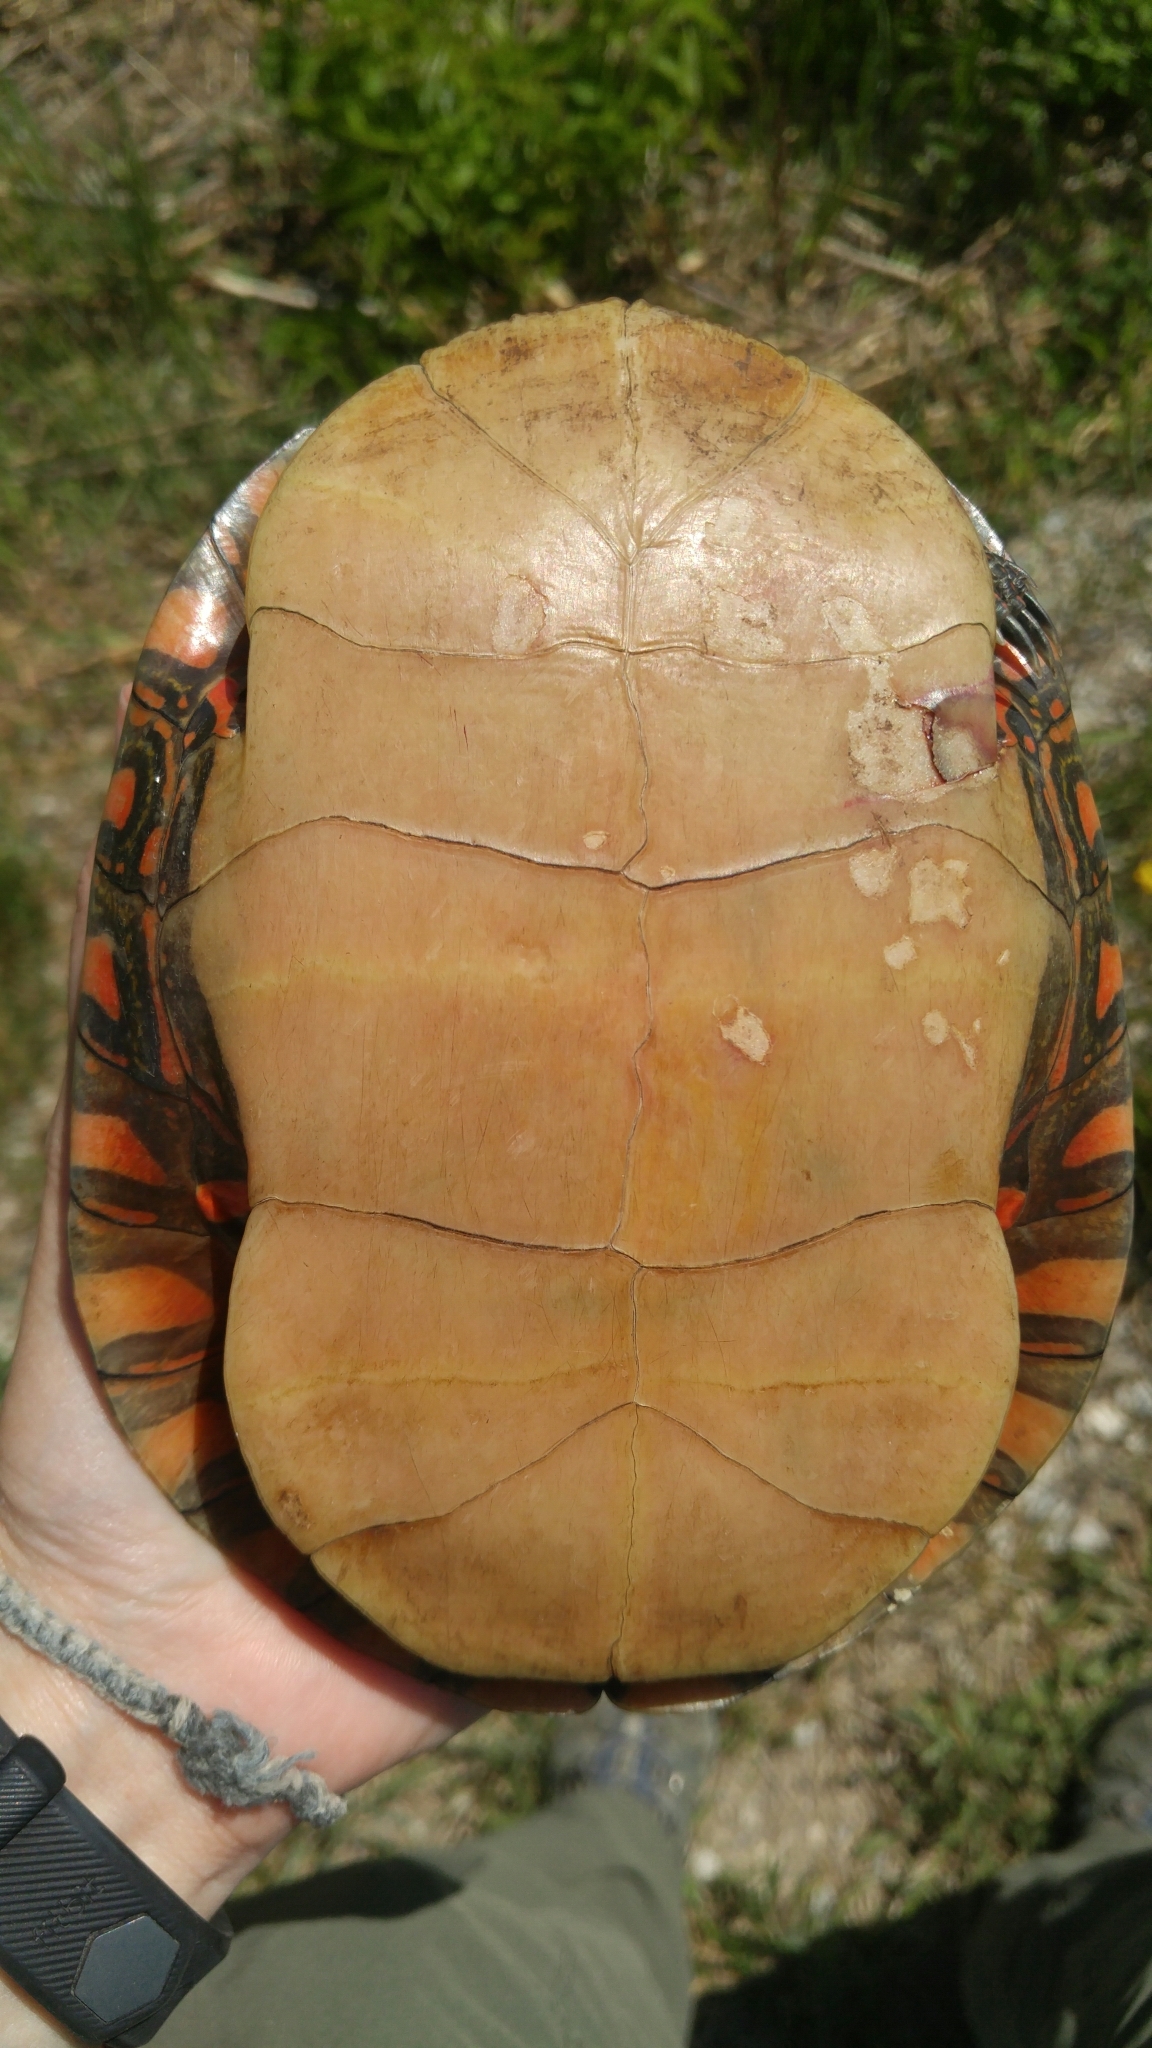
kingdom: Animalia
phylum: Chordata
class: Testudines
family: Emydidae
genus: Chrysemys
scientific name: Chrysemys picta
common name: Painted turtle
